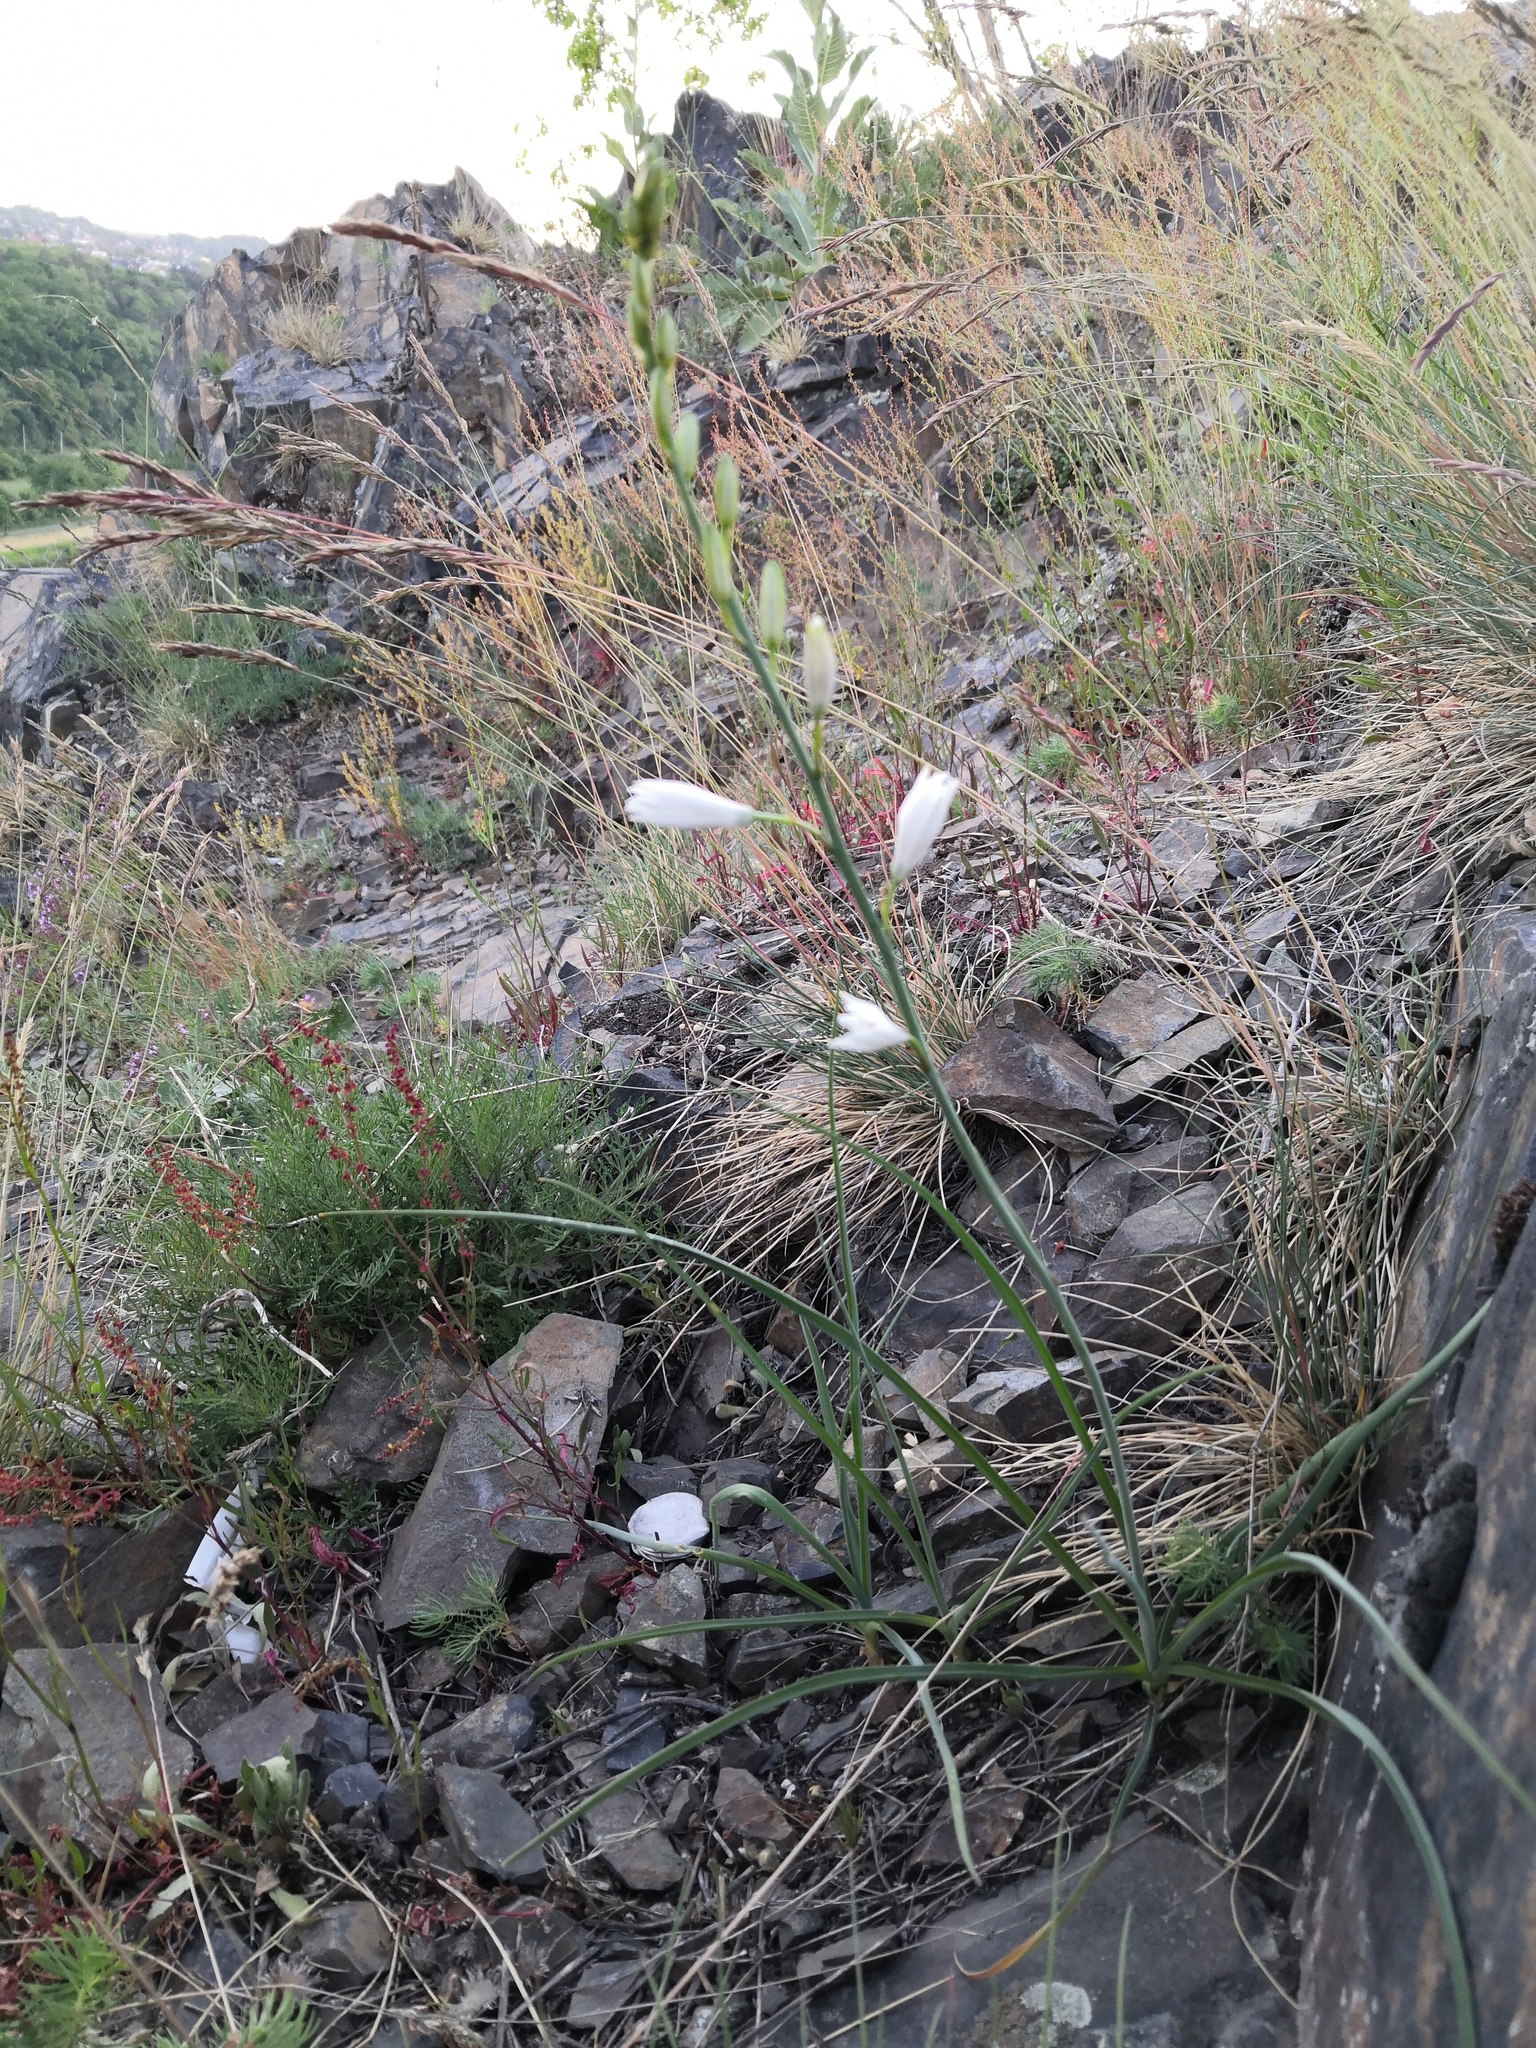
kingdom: Plantae
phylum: Tracheophyta
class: Liliopsida
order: Asparagales
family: Asparagaceae
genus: Anthericum
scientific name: Anthericum liliago
